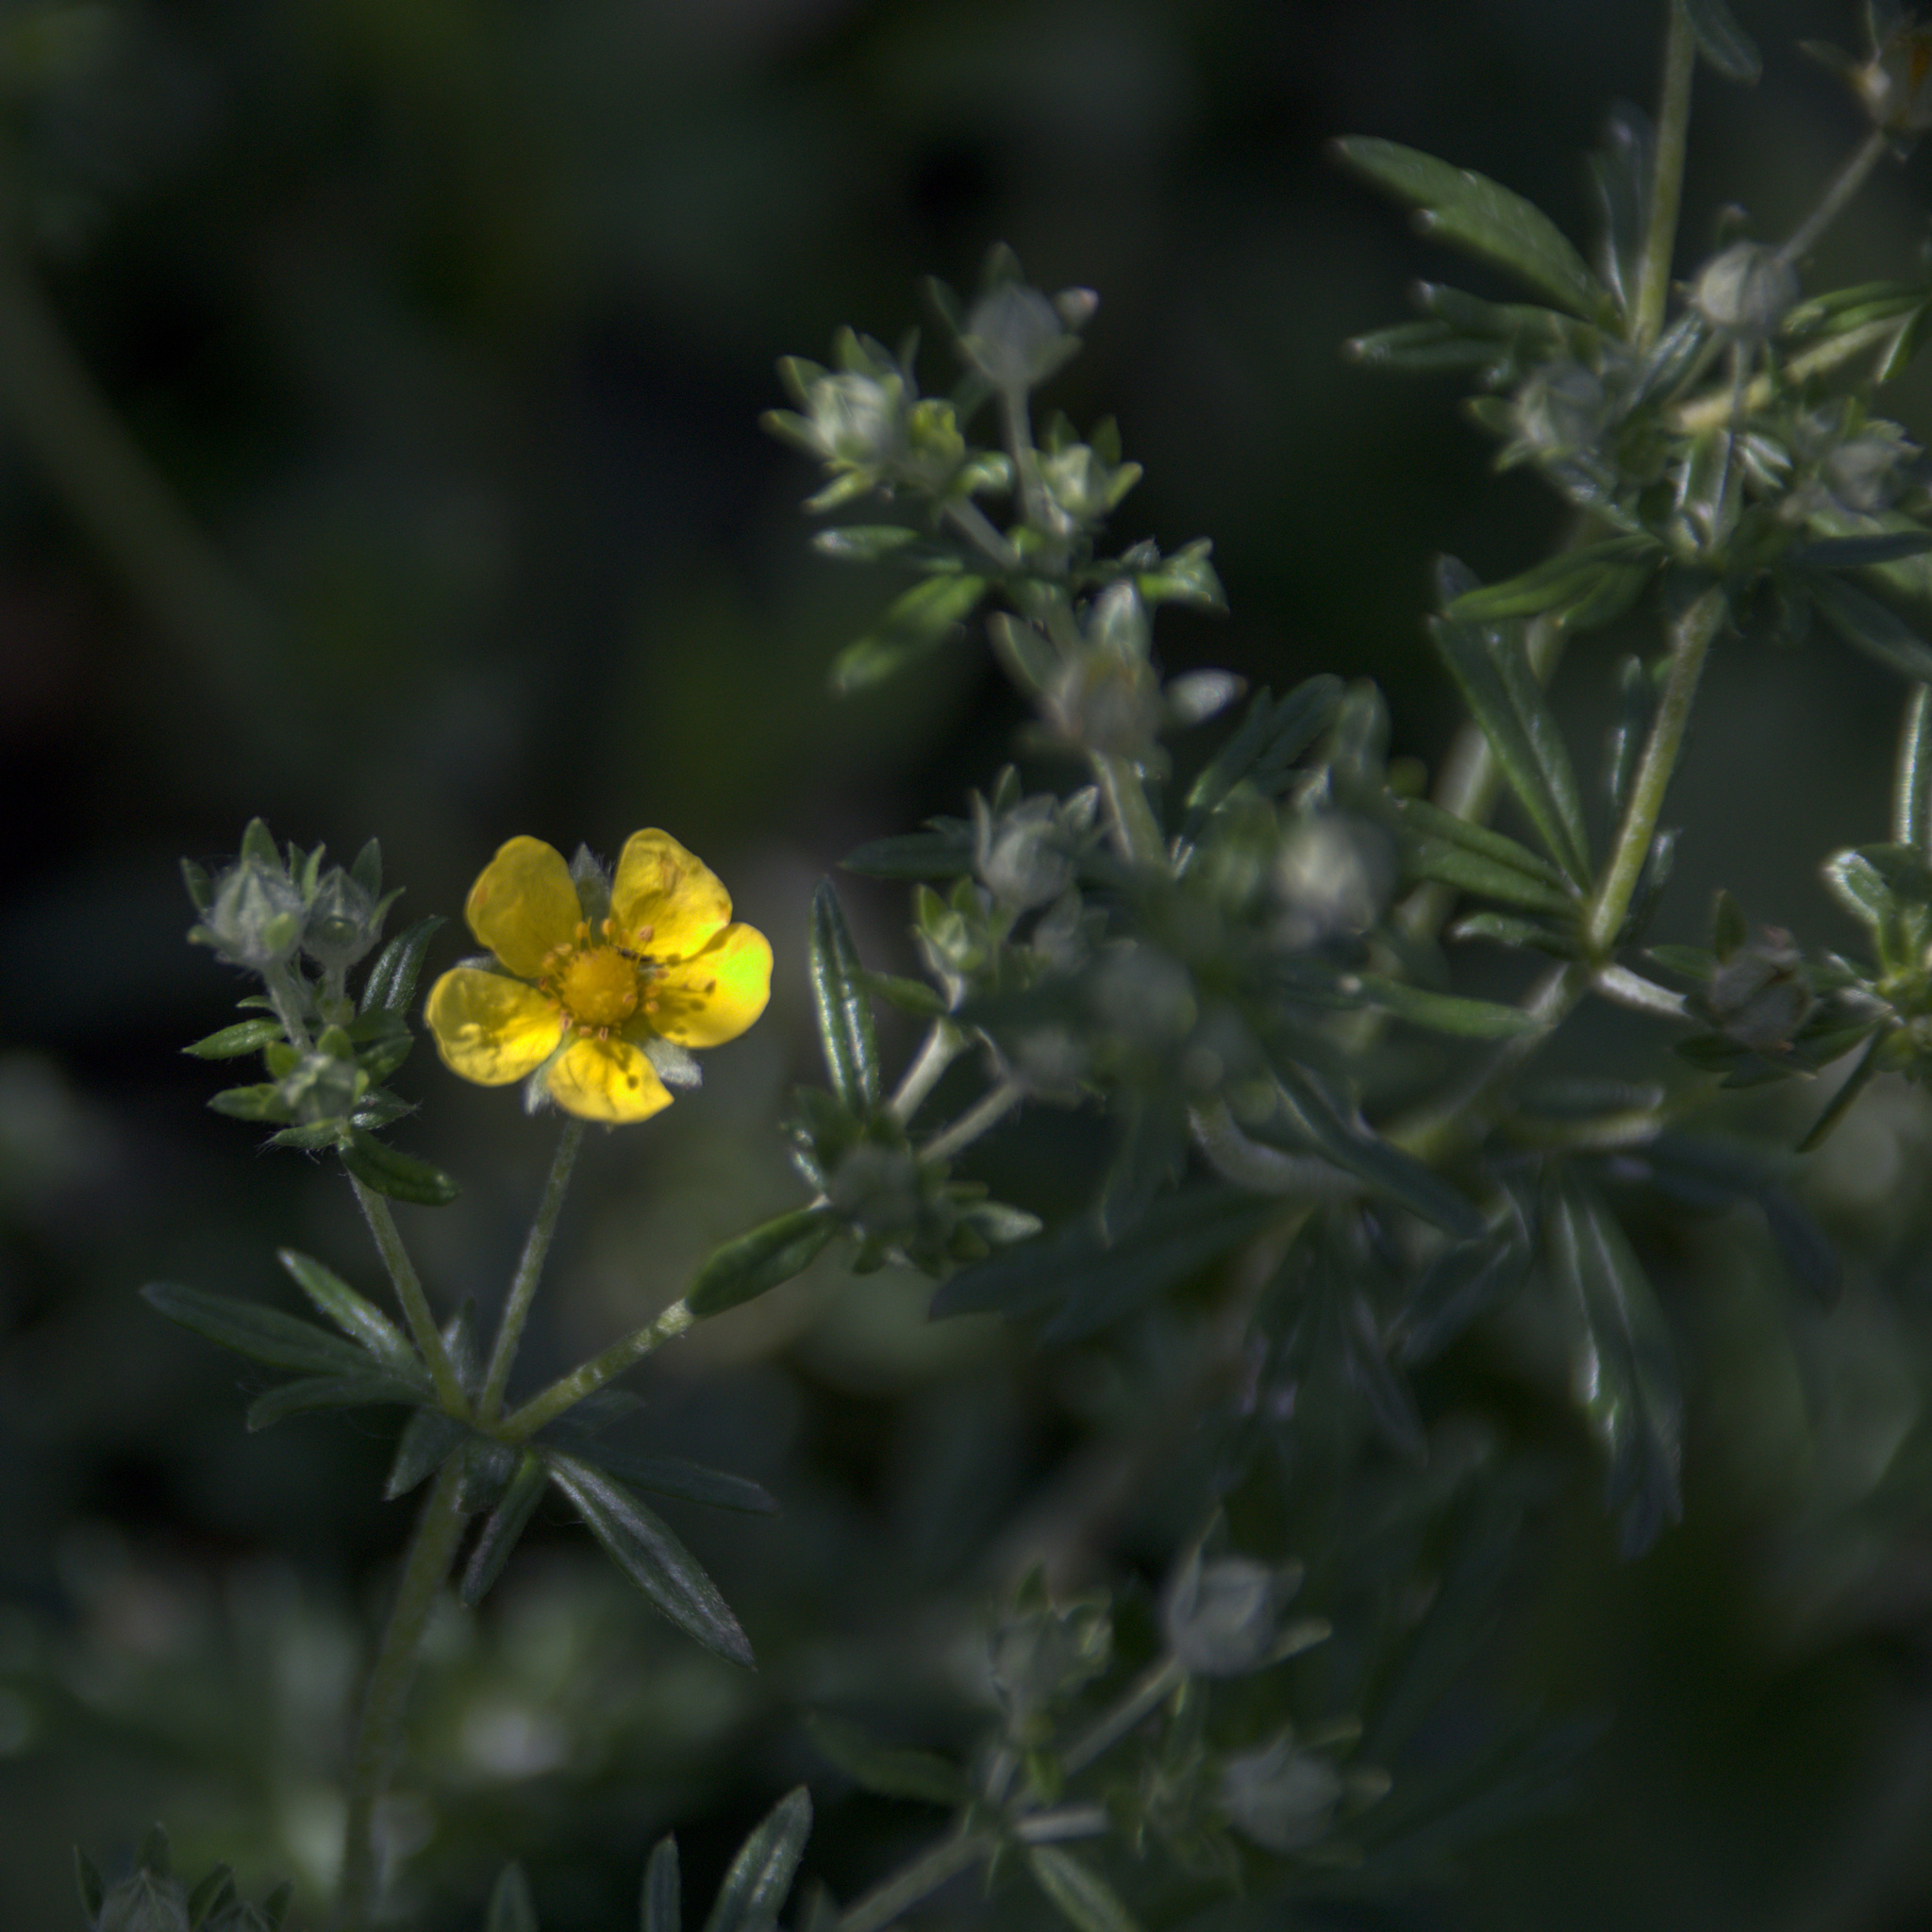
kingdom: Plantae
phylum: Tracheophyta
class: Magnoliopsida
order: Rosales
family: Rosaceae
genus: Potentilla
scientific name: Potentilla argentea
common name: Hoary cinquefoil
